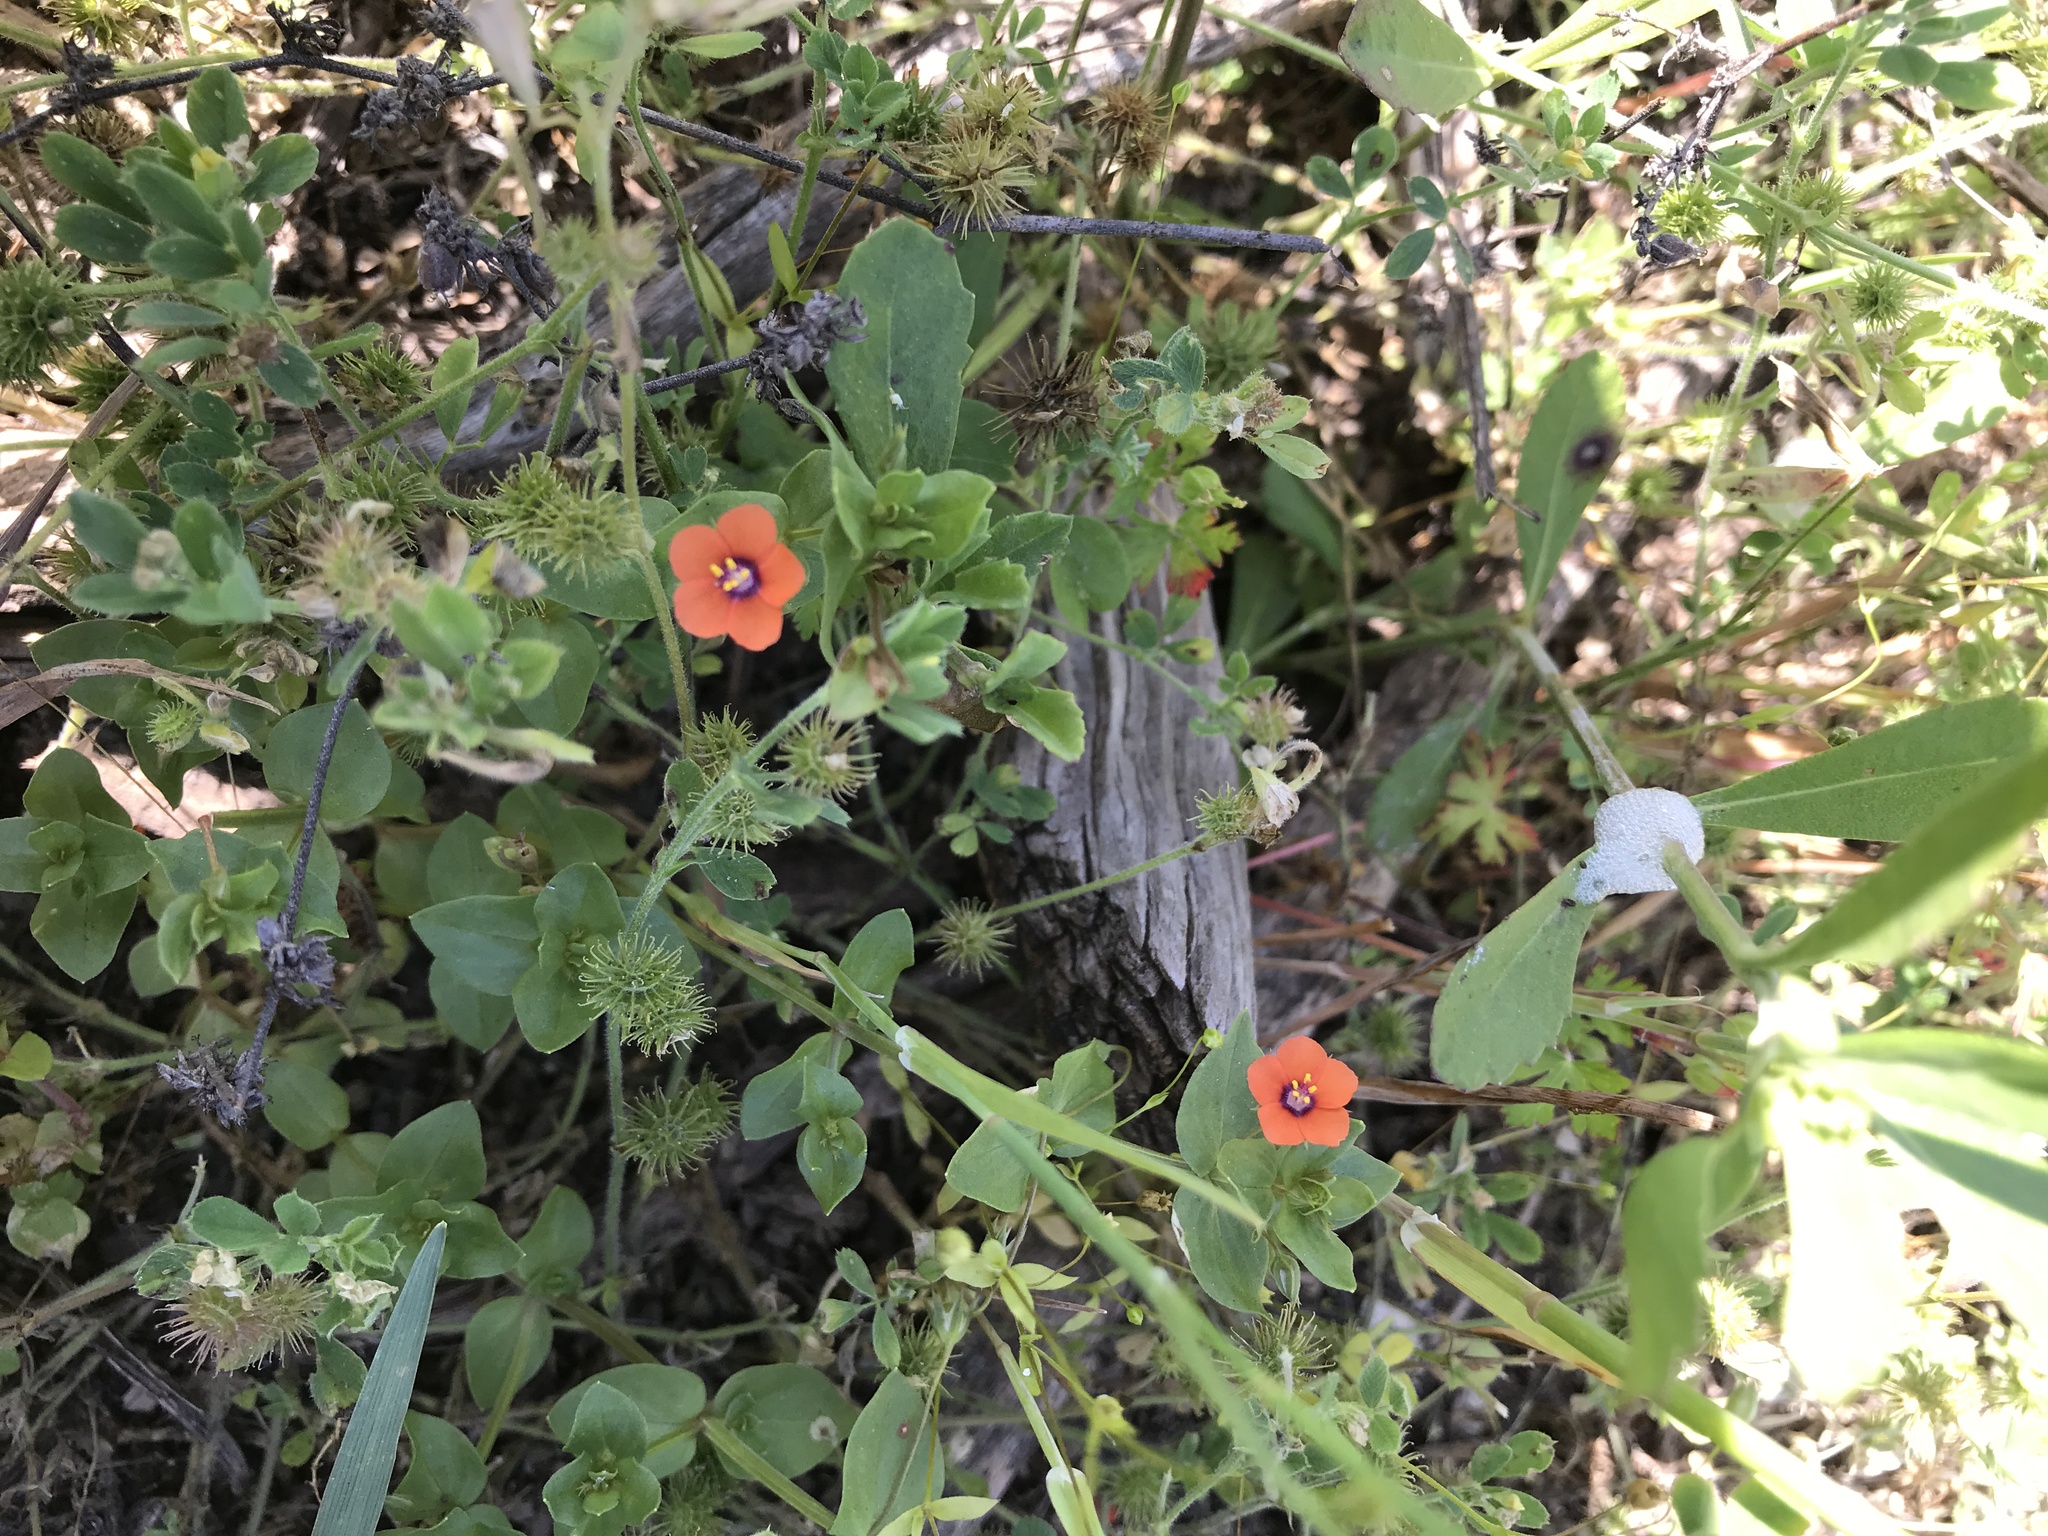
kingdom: Plantae
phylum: Tracheophyta
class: Magnoliopsida
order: Ericales
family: Primulaceae
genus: Lysimachia
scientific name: Lysimachia arvensis
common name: Scarlet pimpernel
